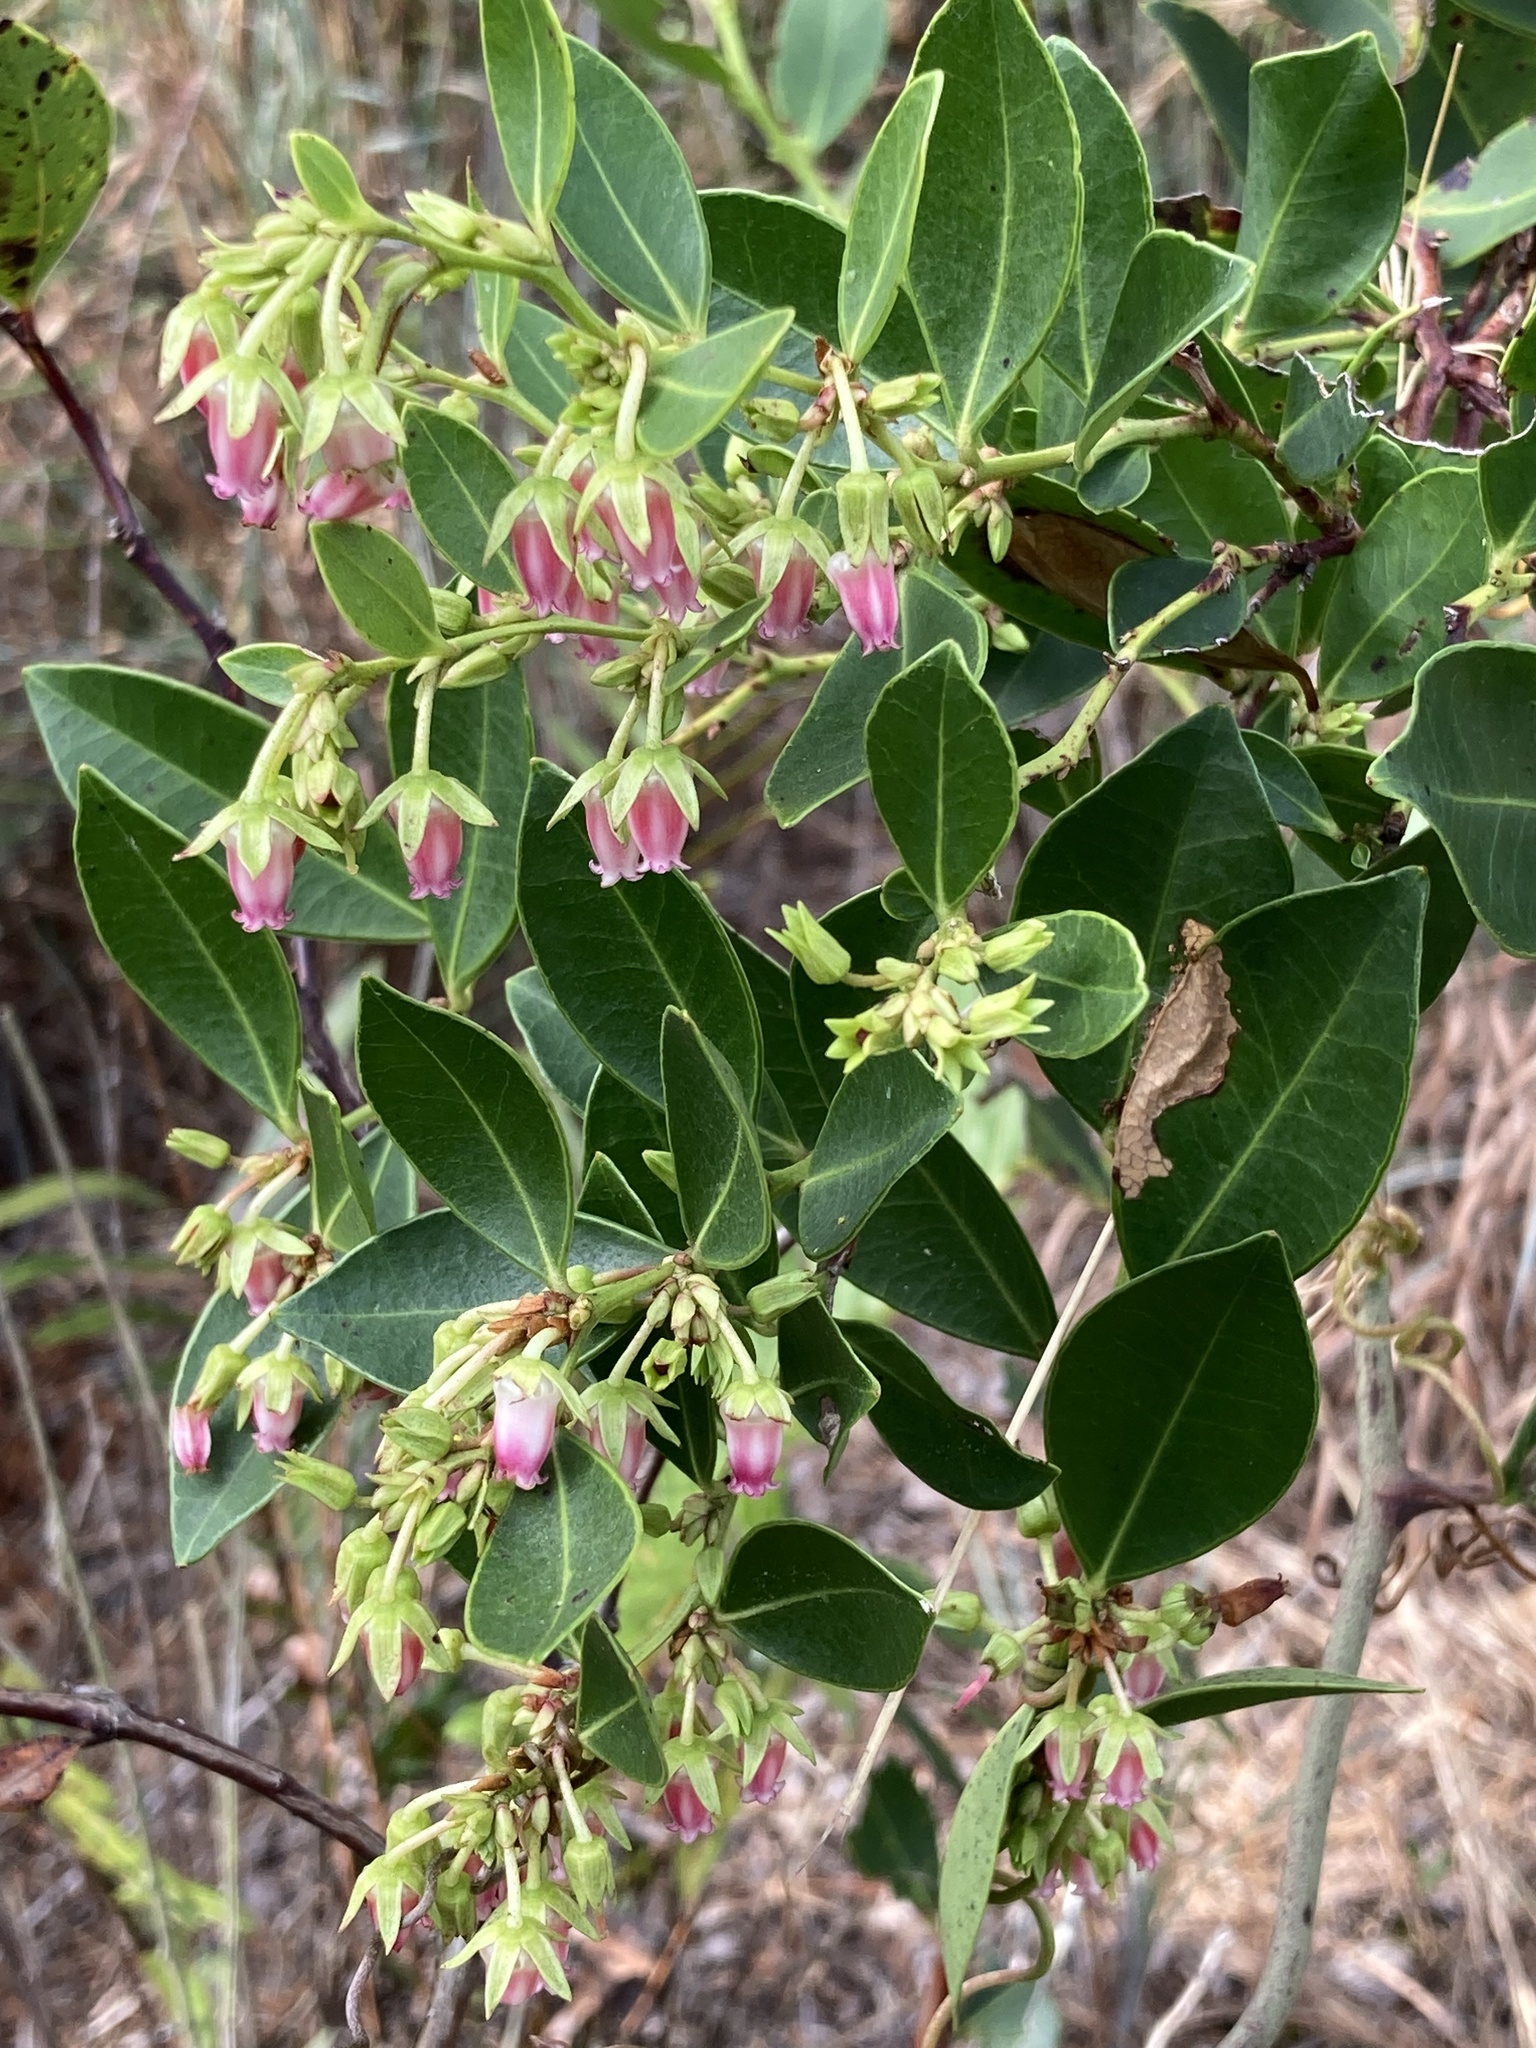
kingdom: Plantae
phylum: Tracheophyta
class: Magnoliopsida
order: Ericales
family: Ericaceae
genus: Lyonia
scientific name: Lyonia lucida
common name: Fetterbush
